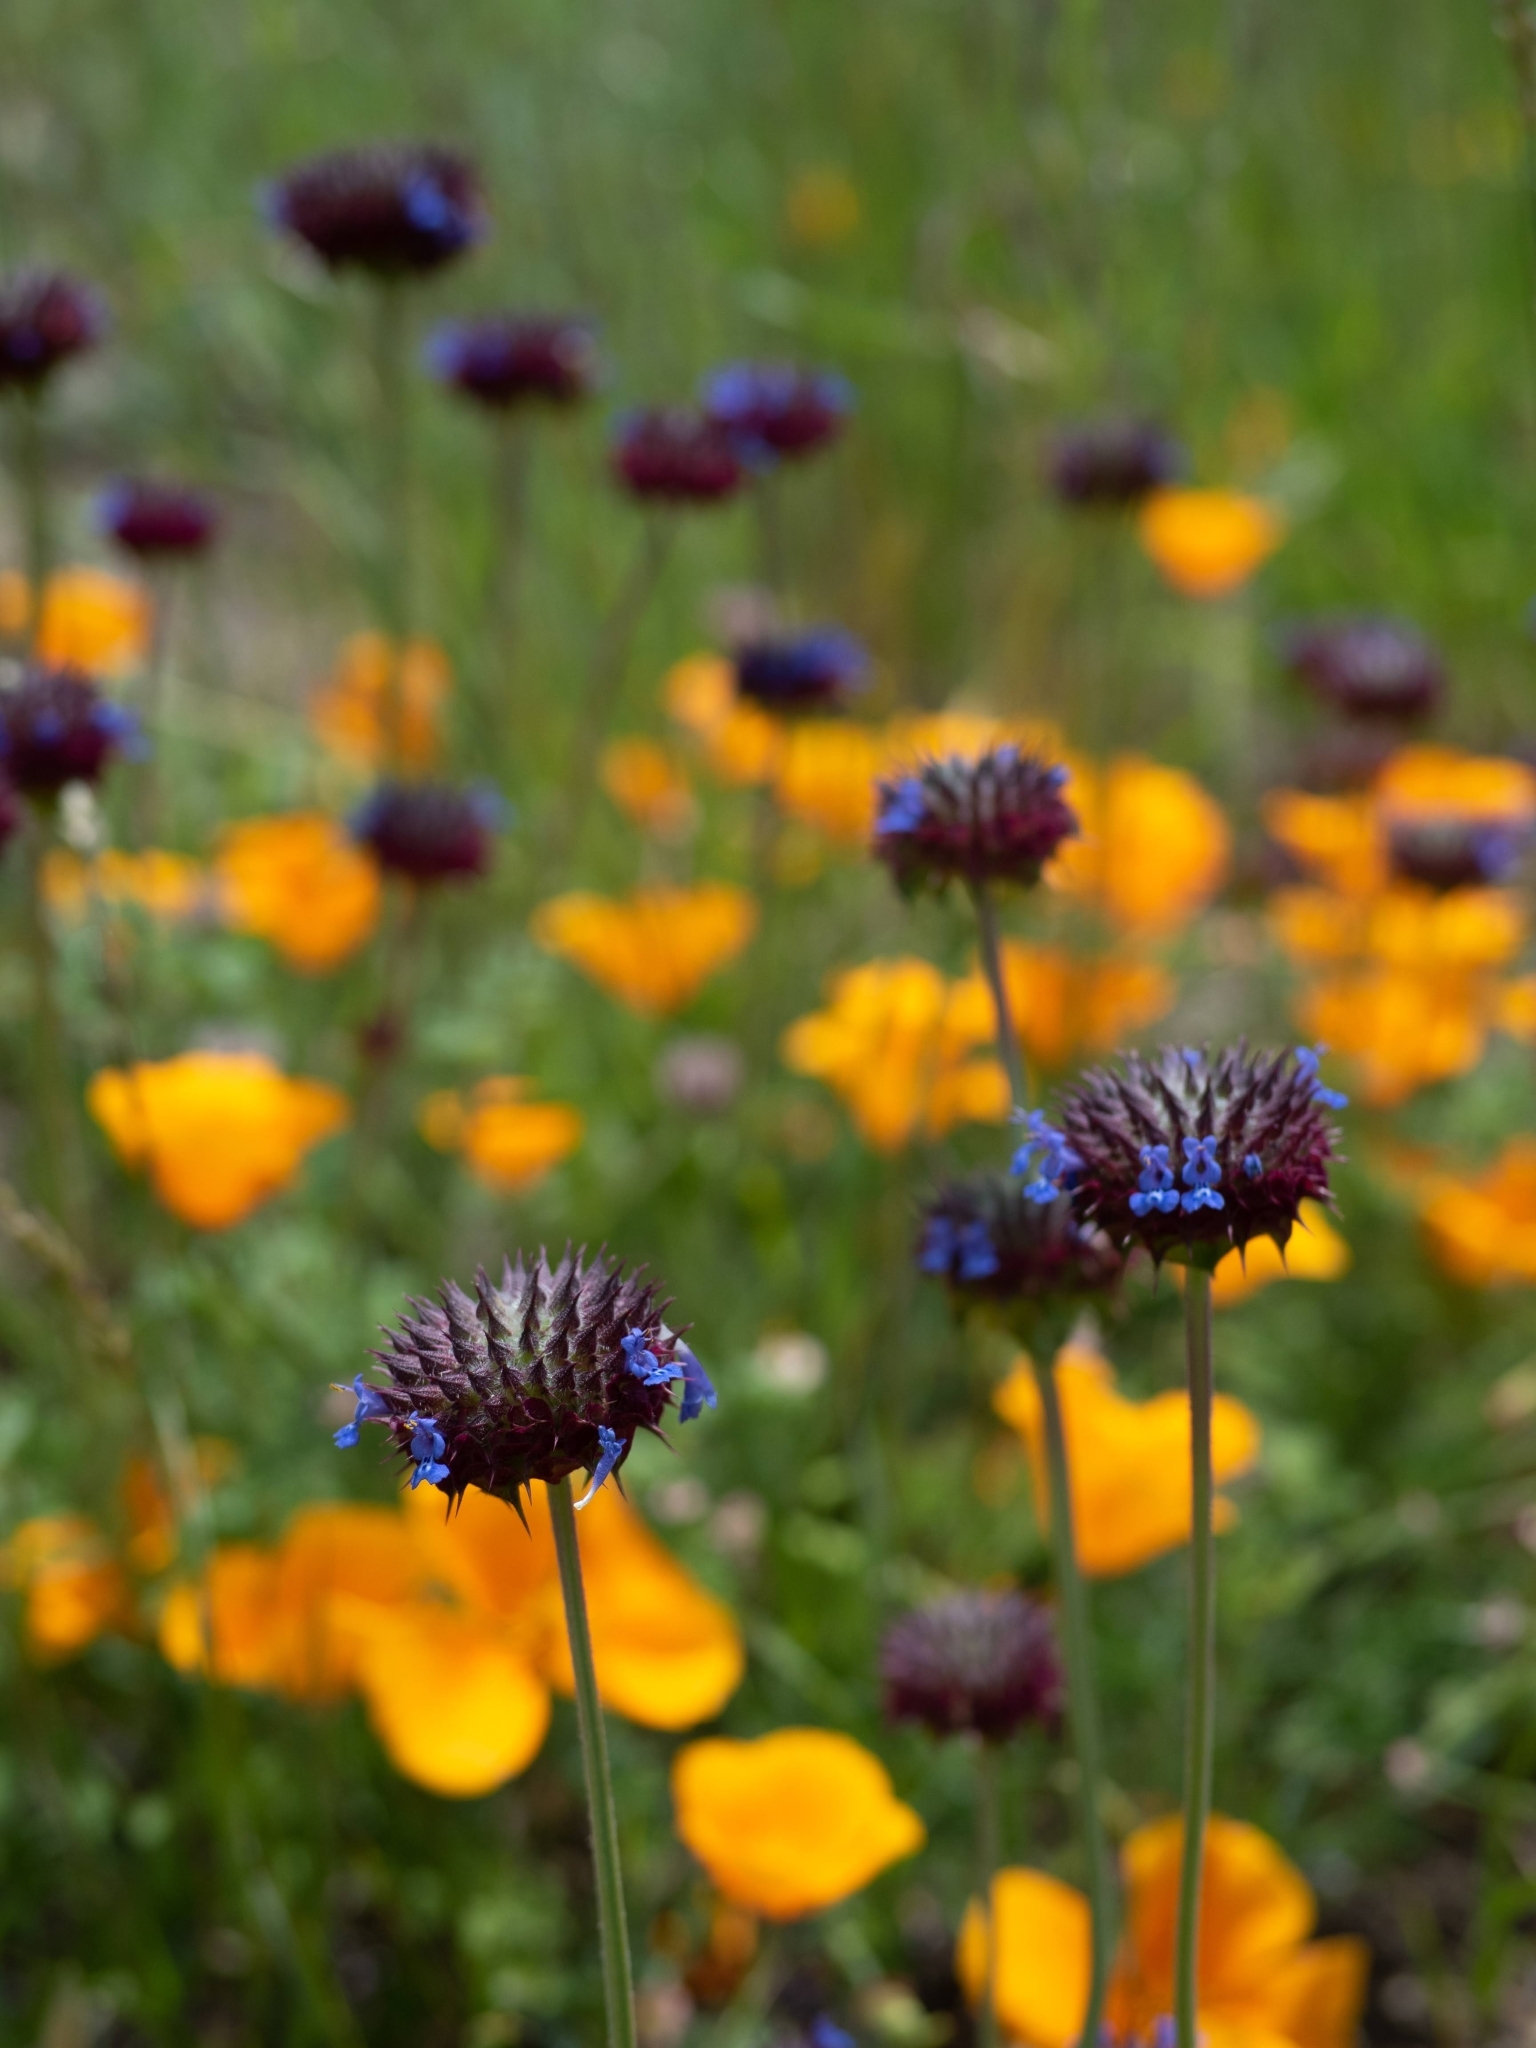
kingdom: Plantae
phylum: Tracheophyta
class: Magnoliopsida
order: Lamiales
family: Lamiaceae
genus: Salvia
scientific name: Salvia columbariae
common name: Chia
